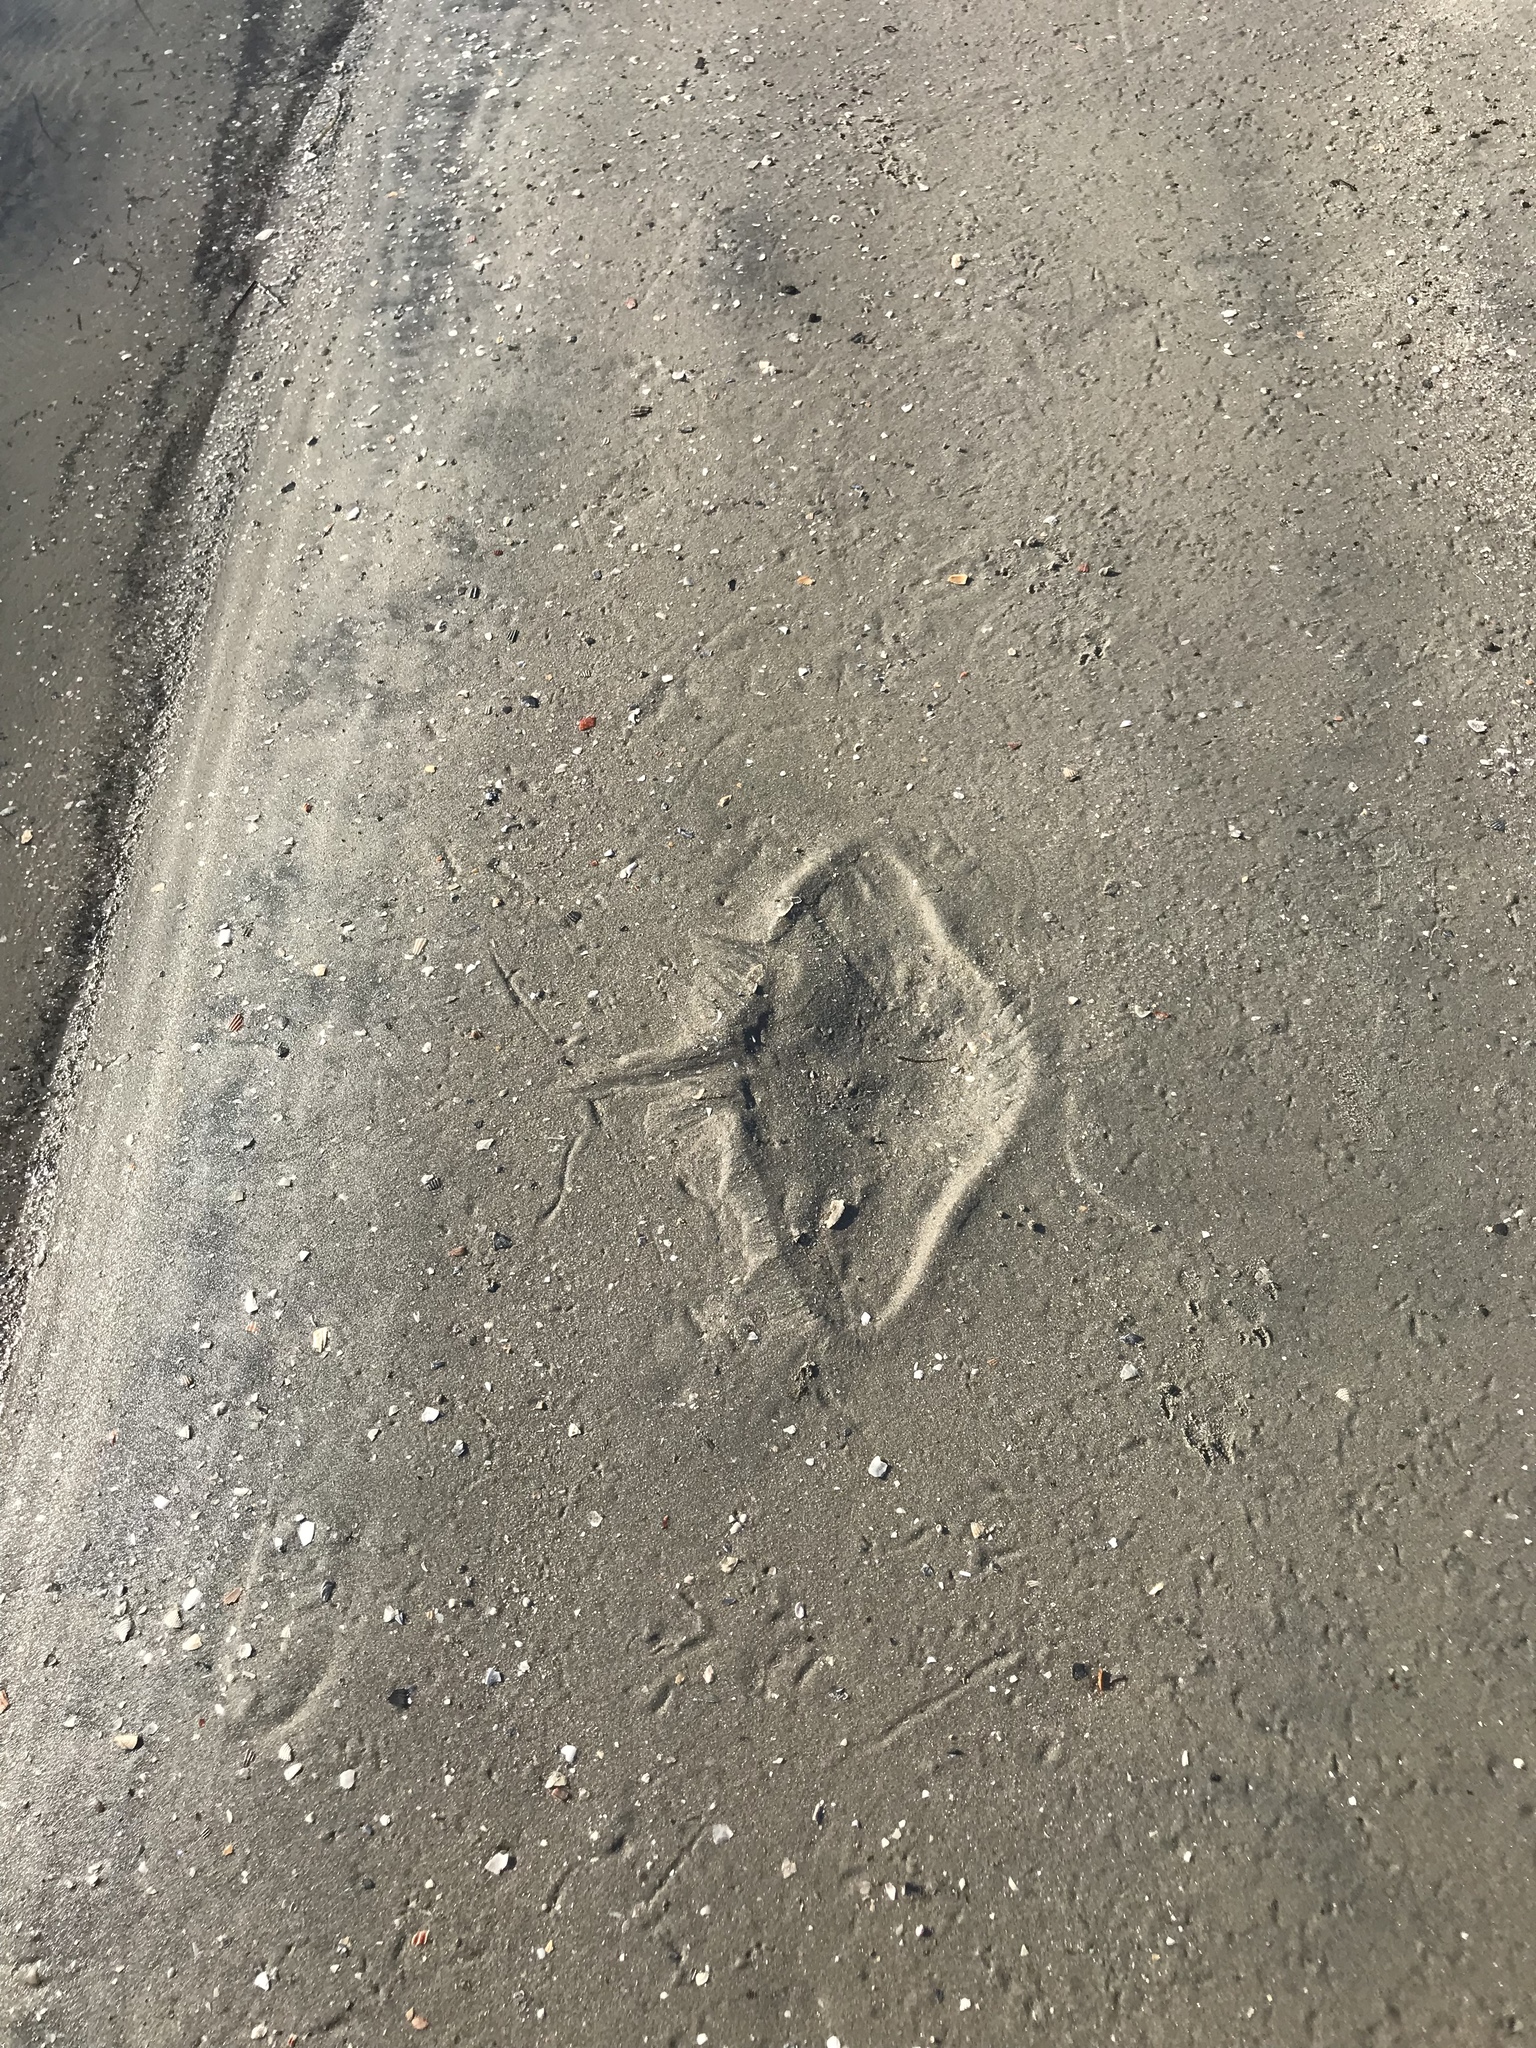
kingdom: Animalia
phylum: Chordata
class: Elasmobranchii
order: Myliobatiformes
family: Gymnuridae
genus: Gymnura
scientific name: Gymnura marmorata
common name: California butterfly ray
